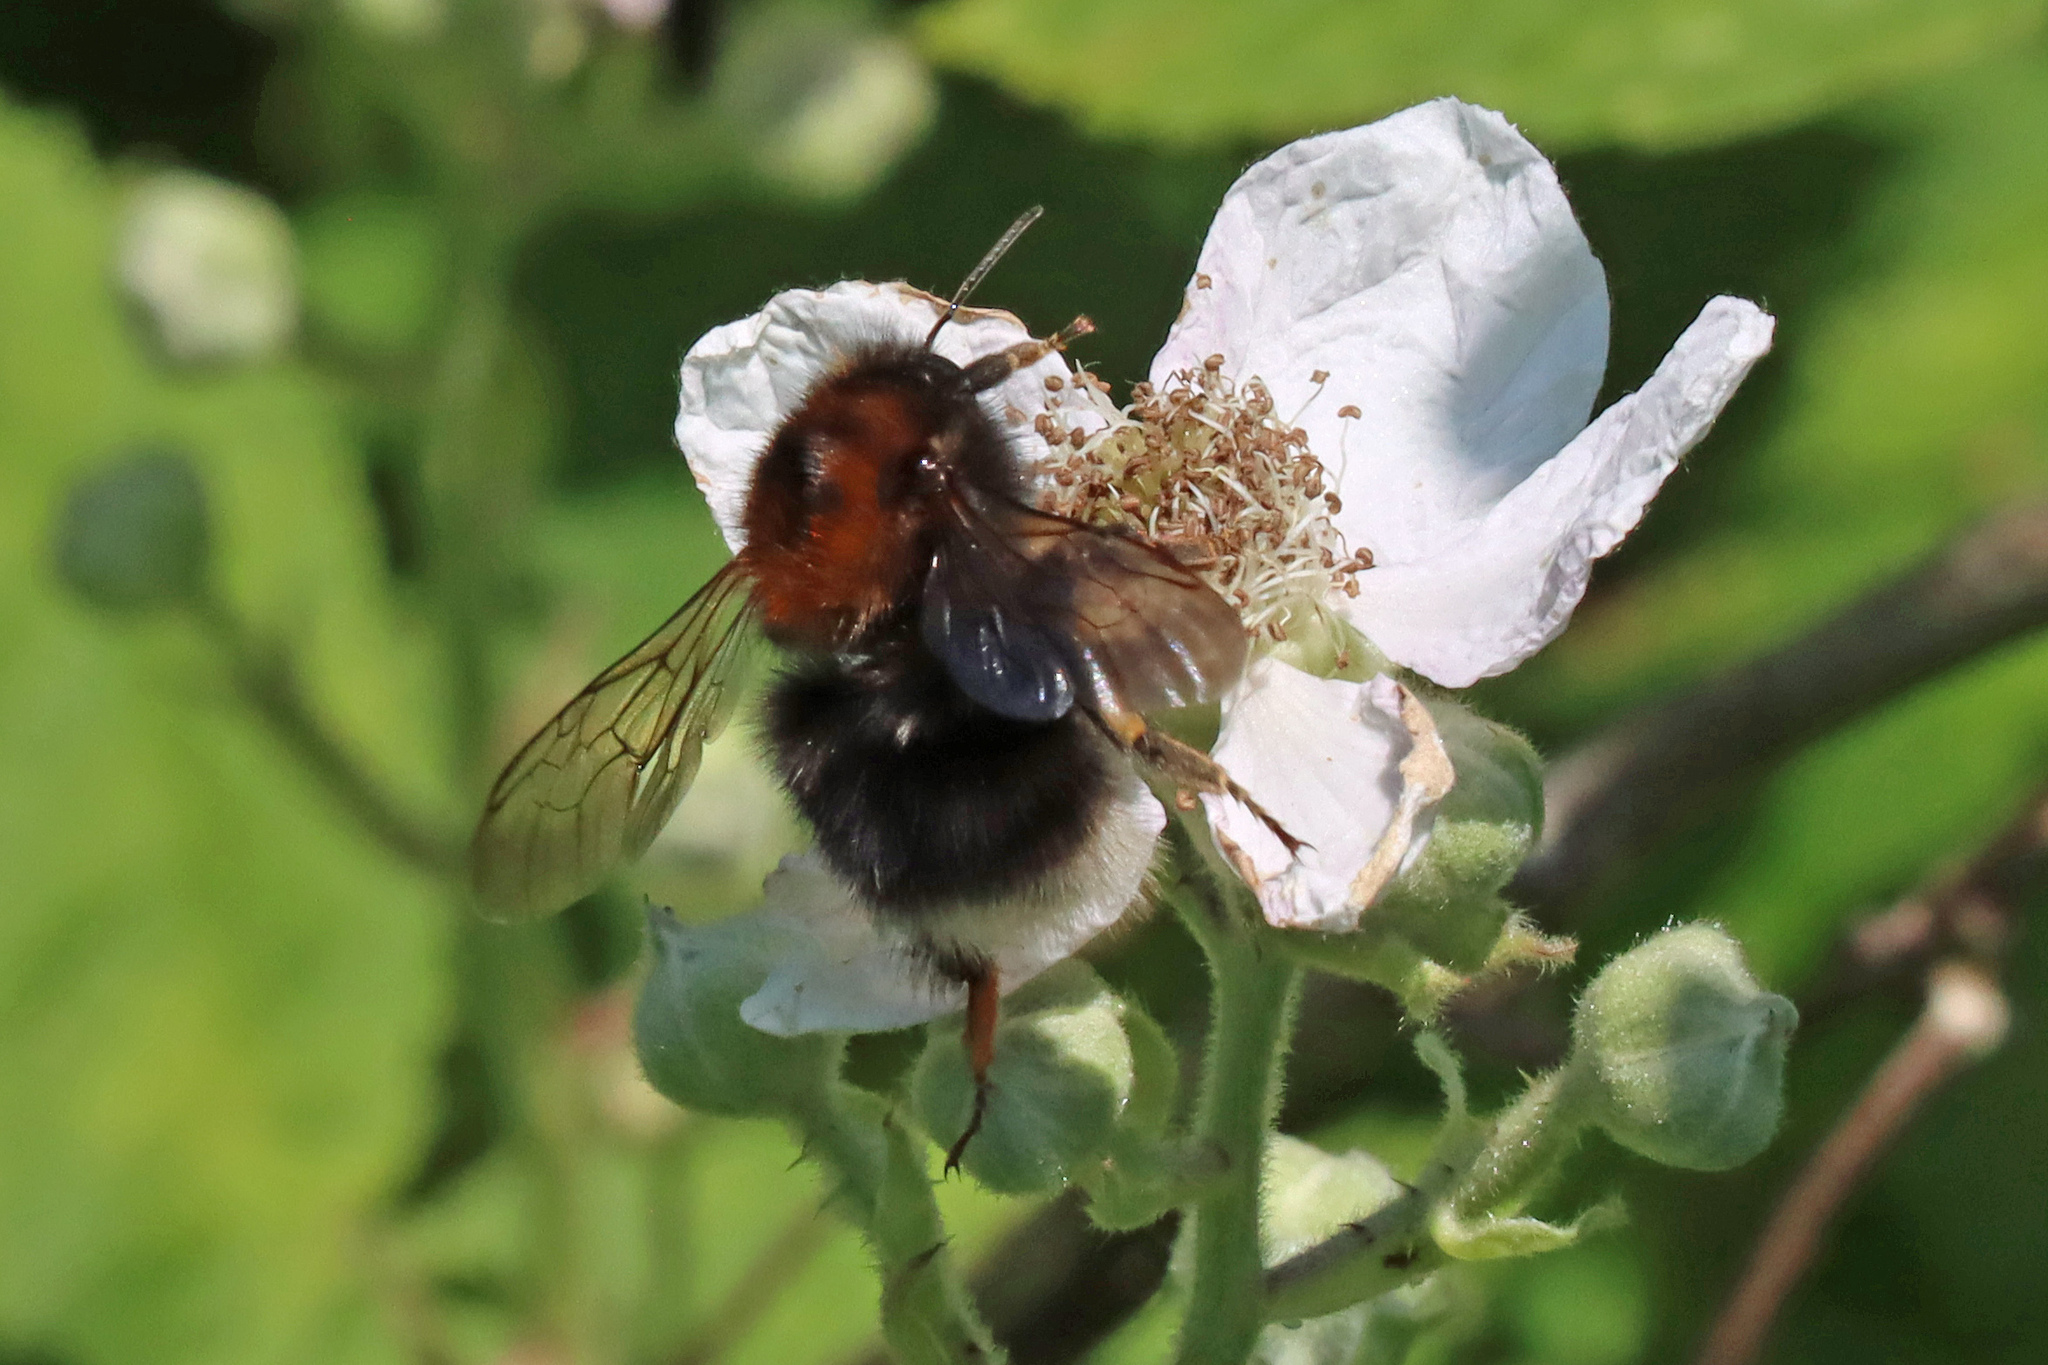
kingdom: Animalia
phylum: Arthropoda
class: Insecta
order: Hymenoptera
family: Apidae
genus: Bombus
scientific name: Bombus hypnorum
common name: New garden bumblebee
